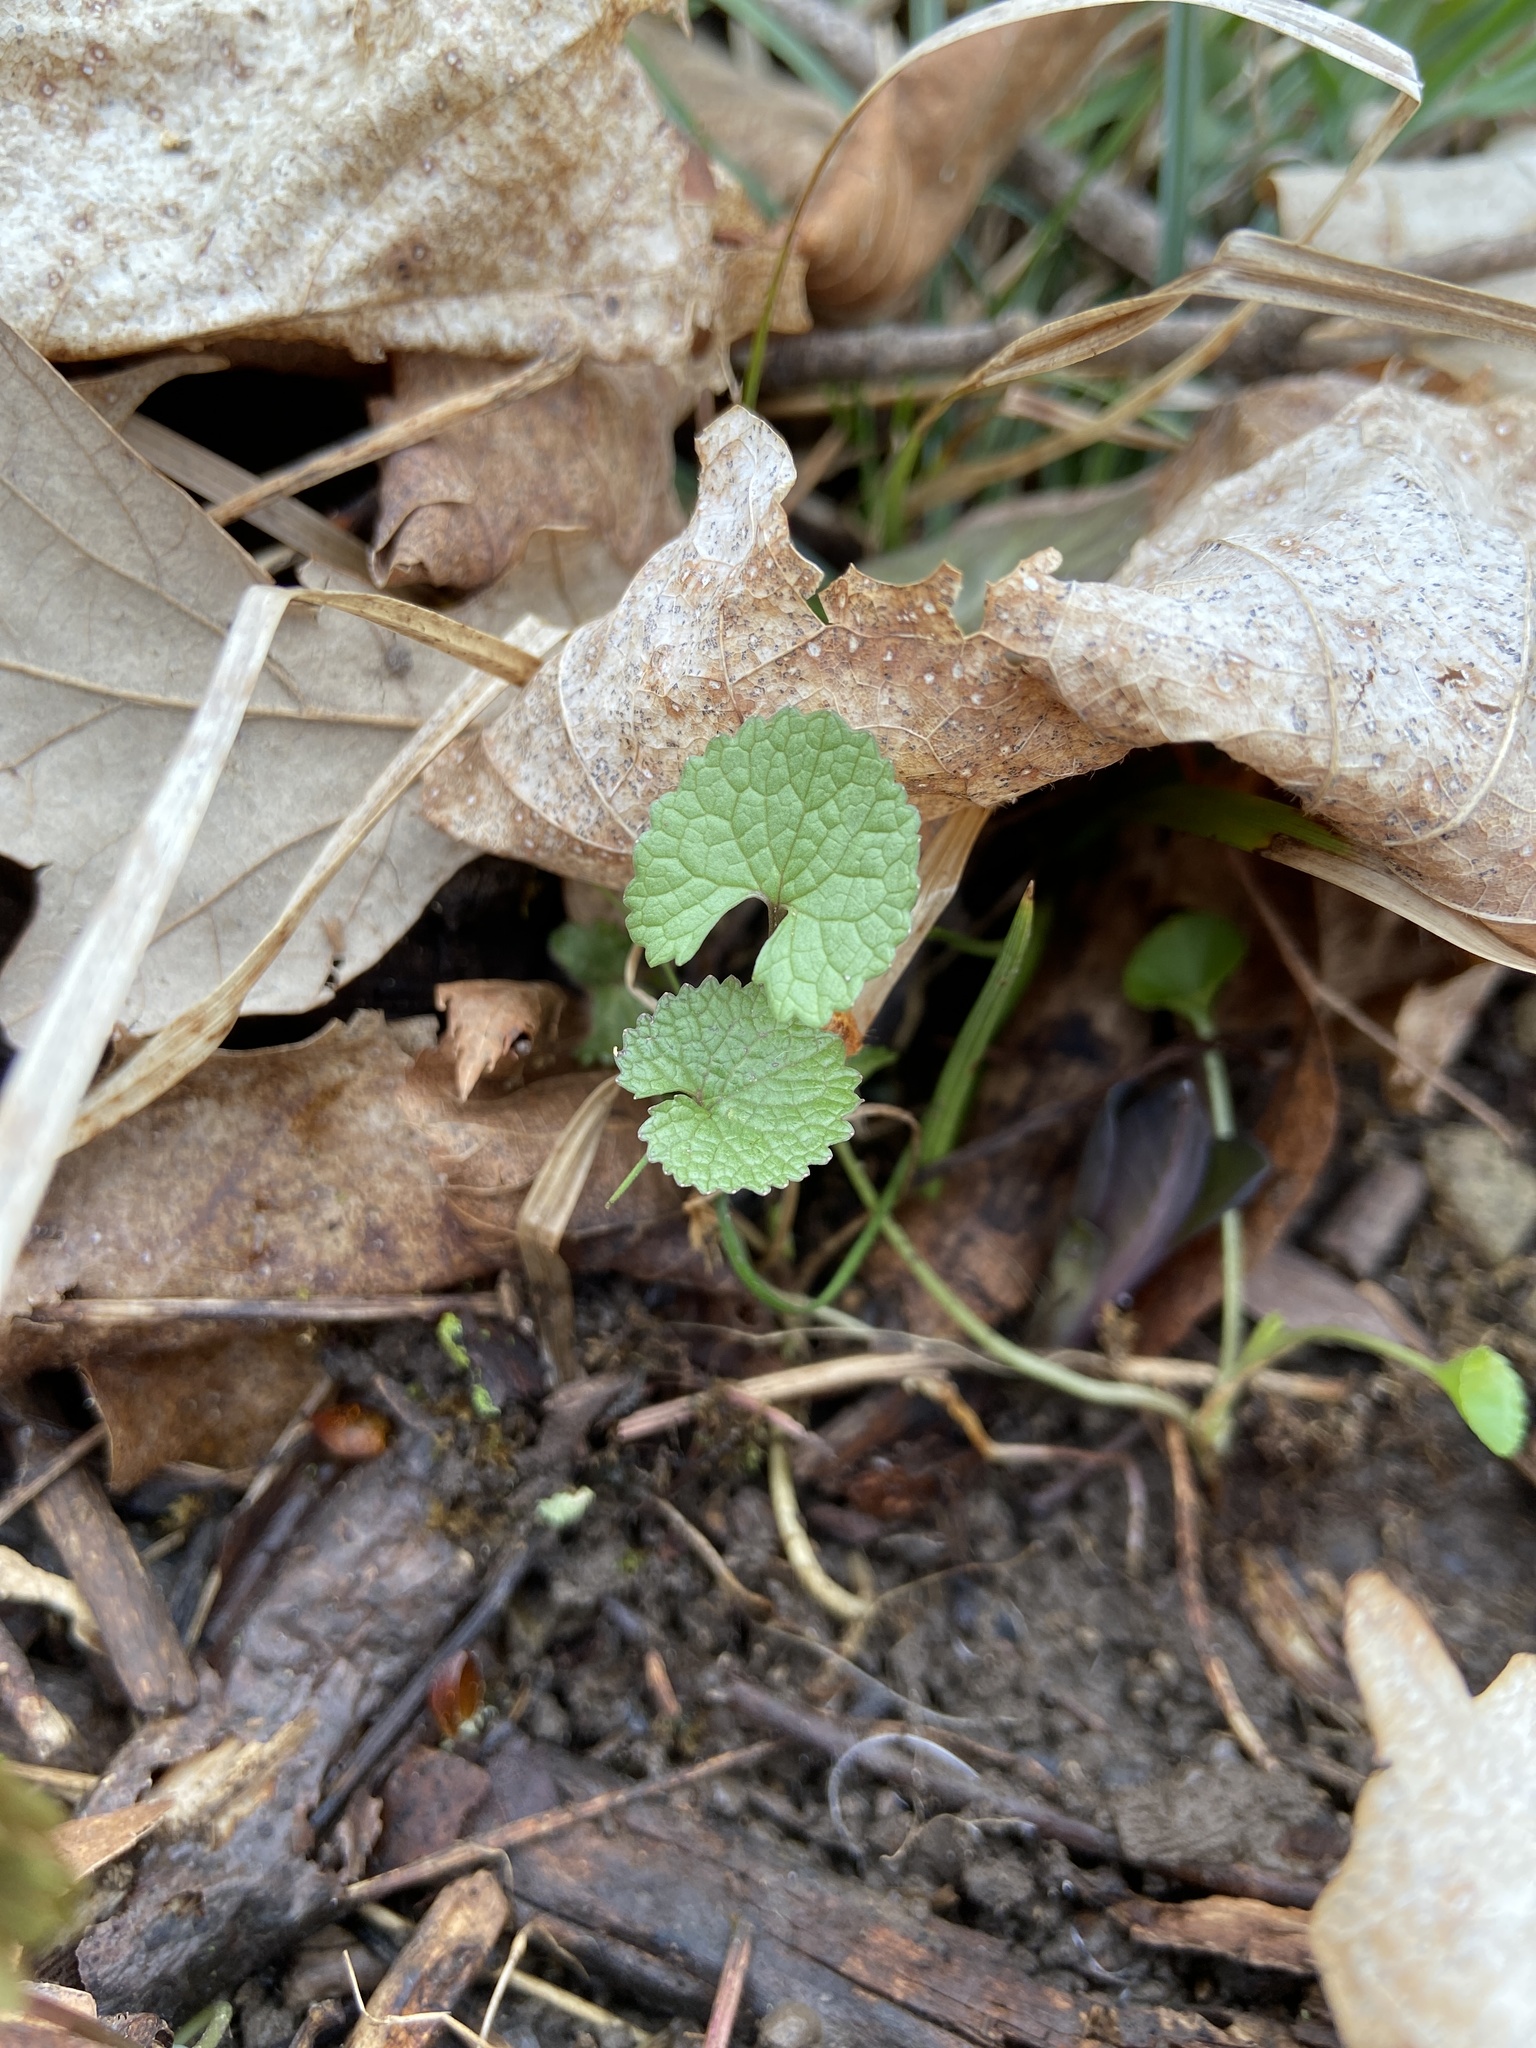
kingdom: Plantae
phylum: Tracheophyta
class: Magnoliopsida
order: Brassicales
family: Brassicaceae
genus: Alliaria
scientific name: Alliaria petiolata
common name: Garlic mustard
